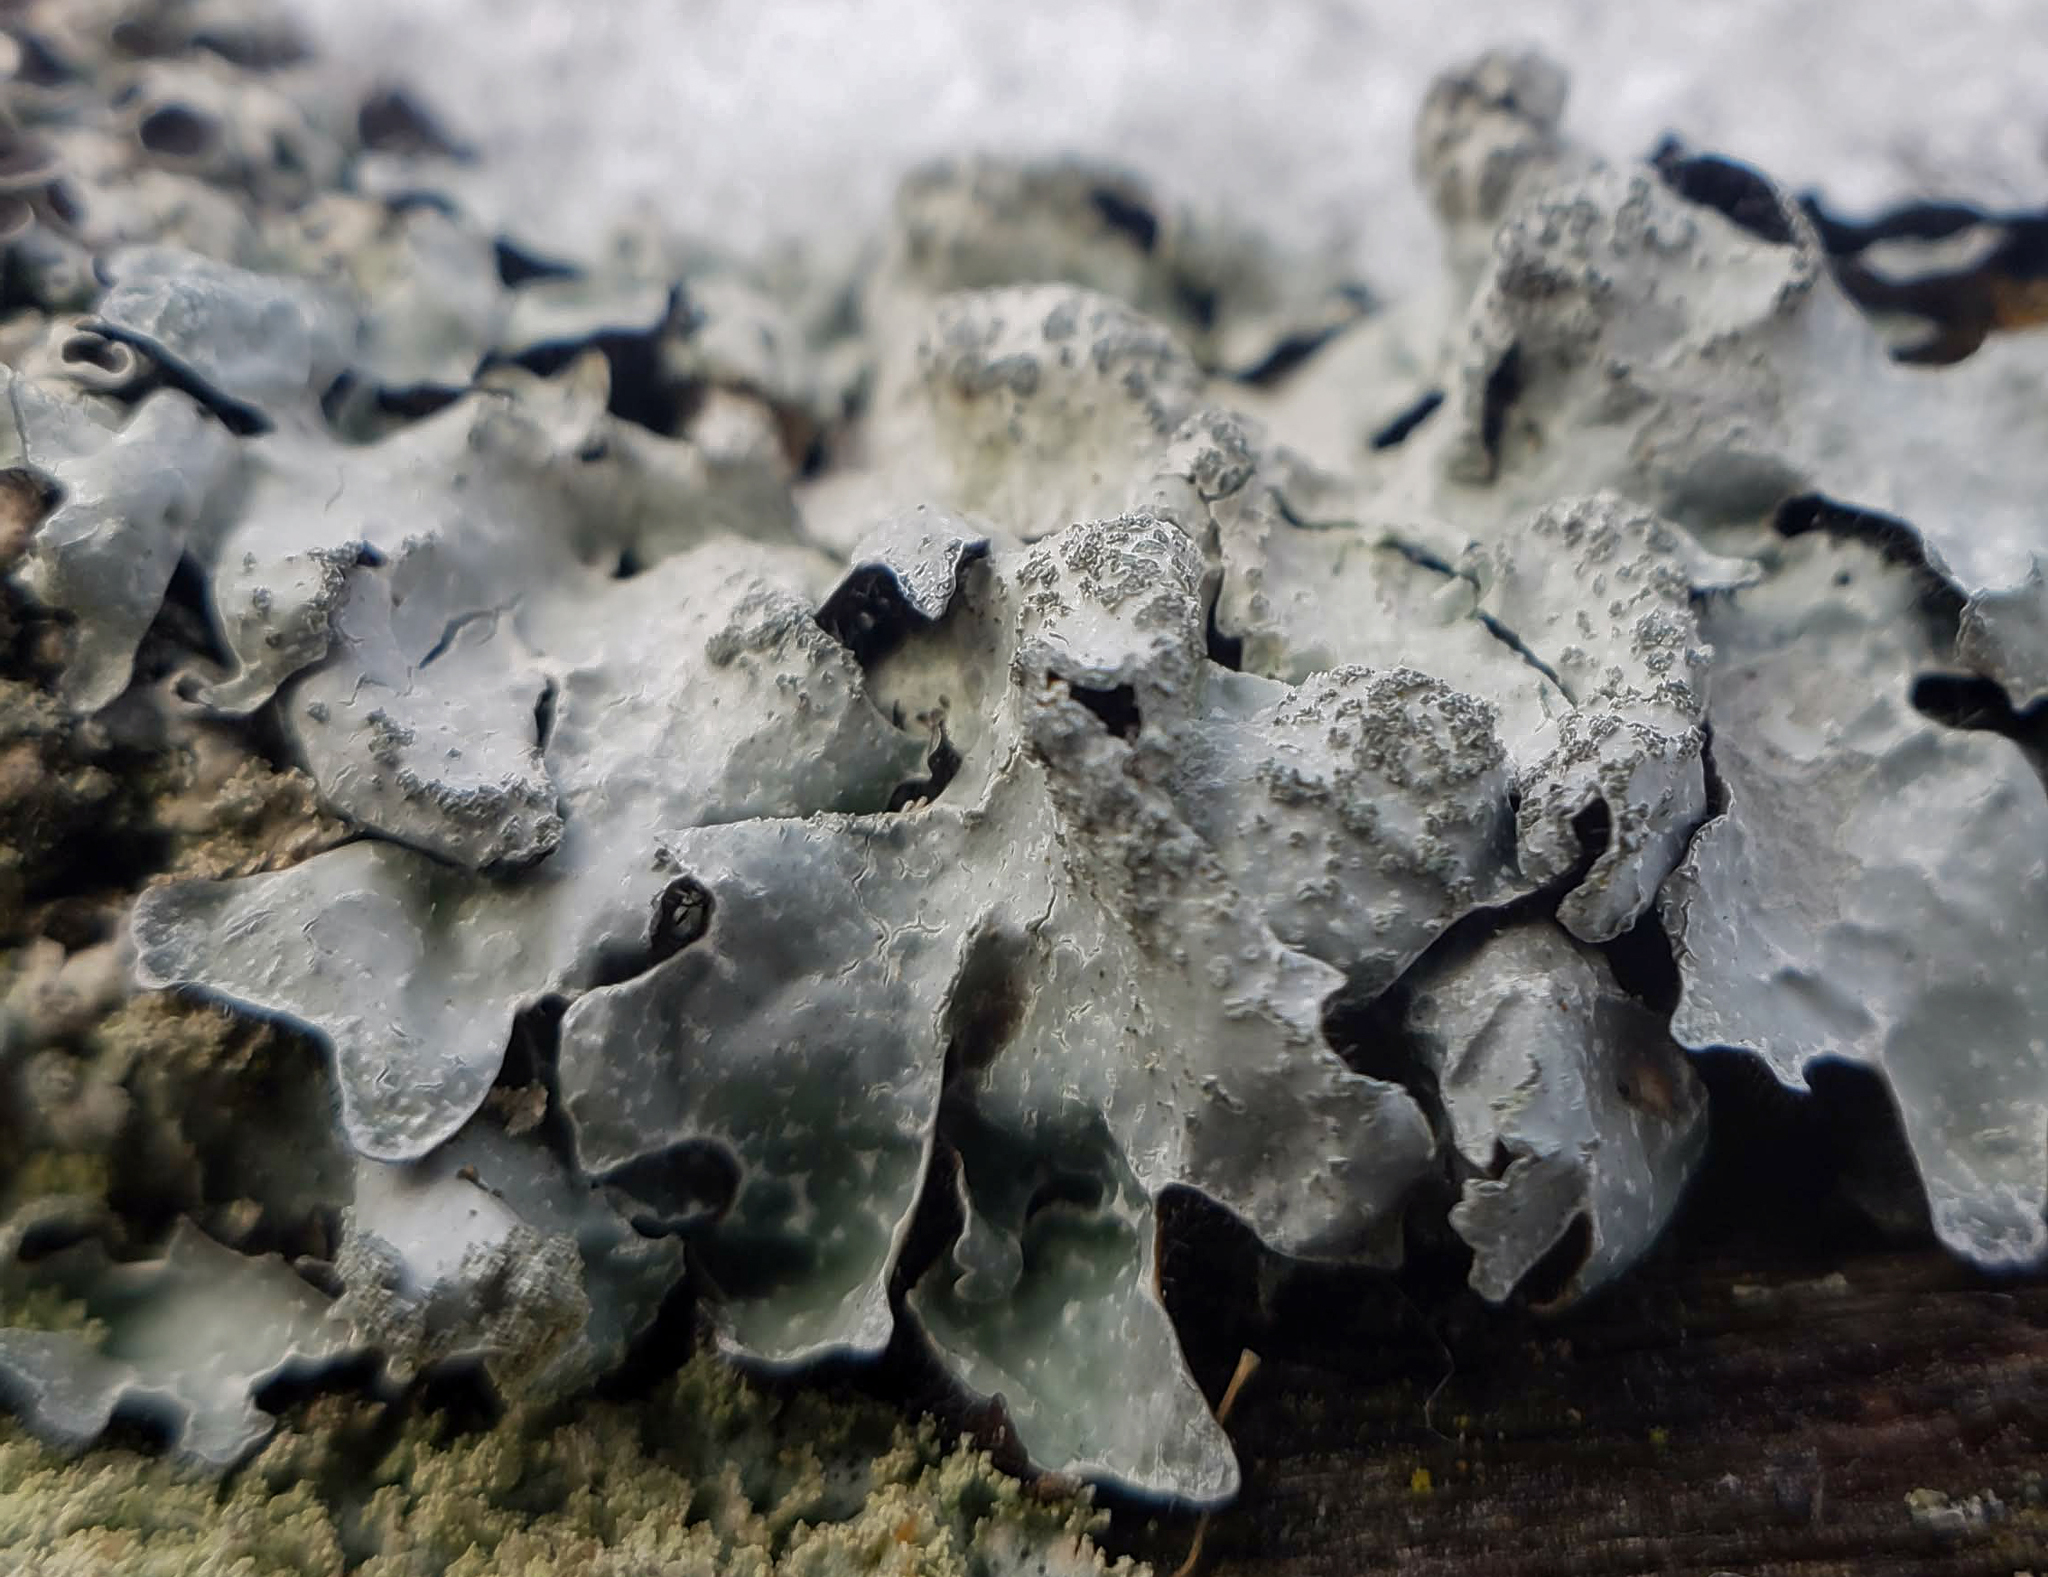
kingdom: Fungi
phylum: Ascomycota
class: Lecanoromycetes
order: Lecanorales
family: Parmeliaceae
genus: Parmelia
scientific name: Parmelia sulcata
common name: Netted shield lichen
